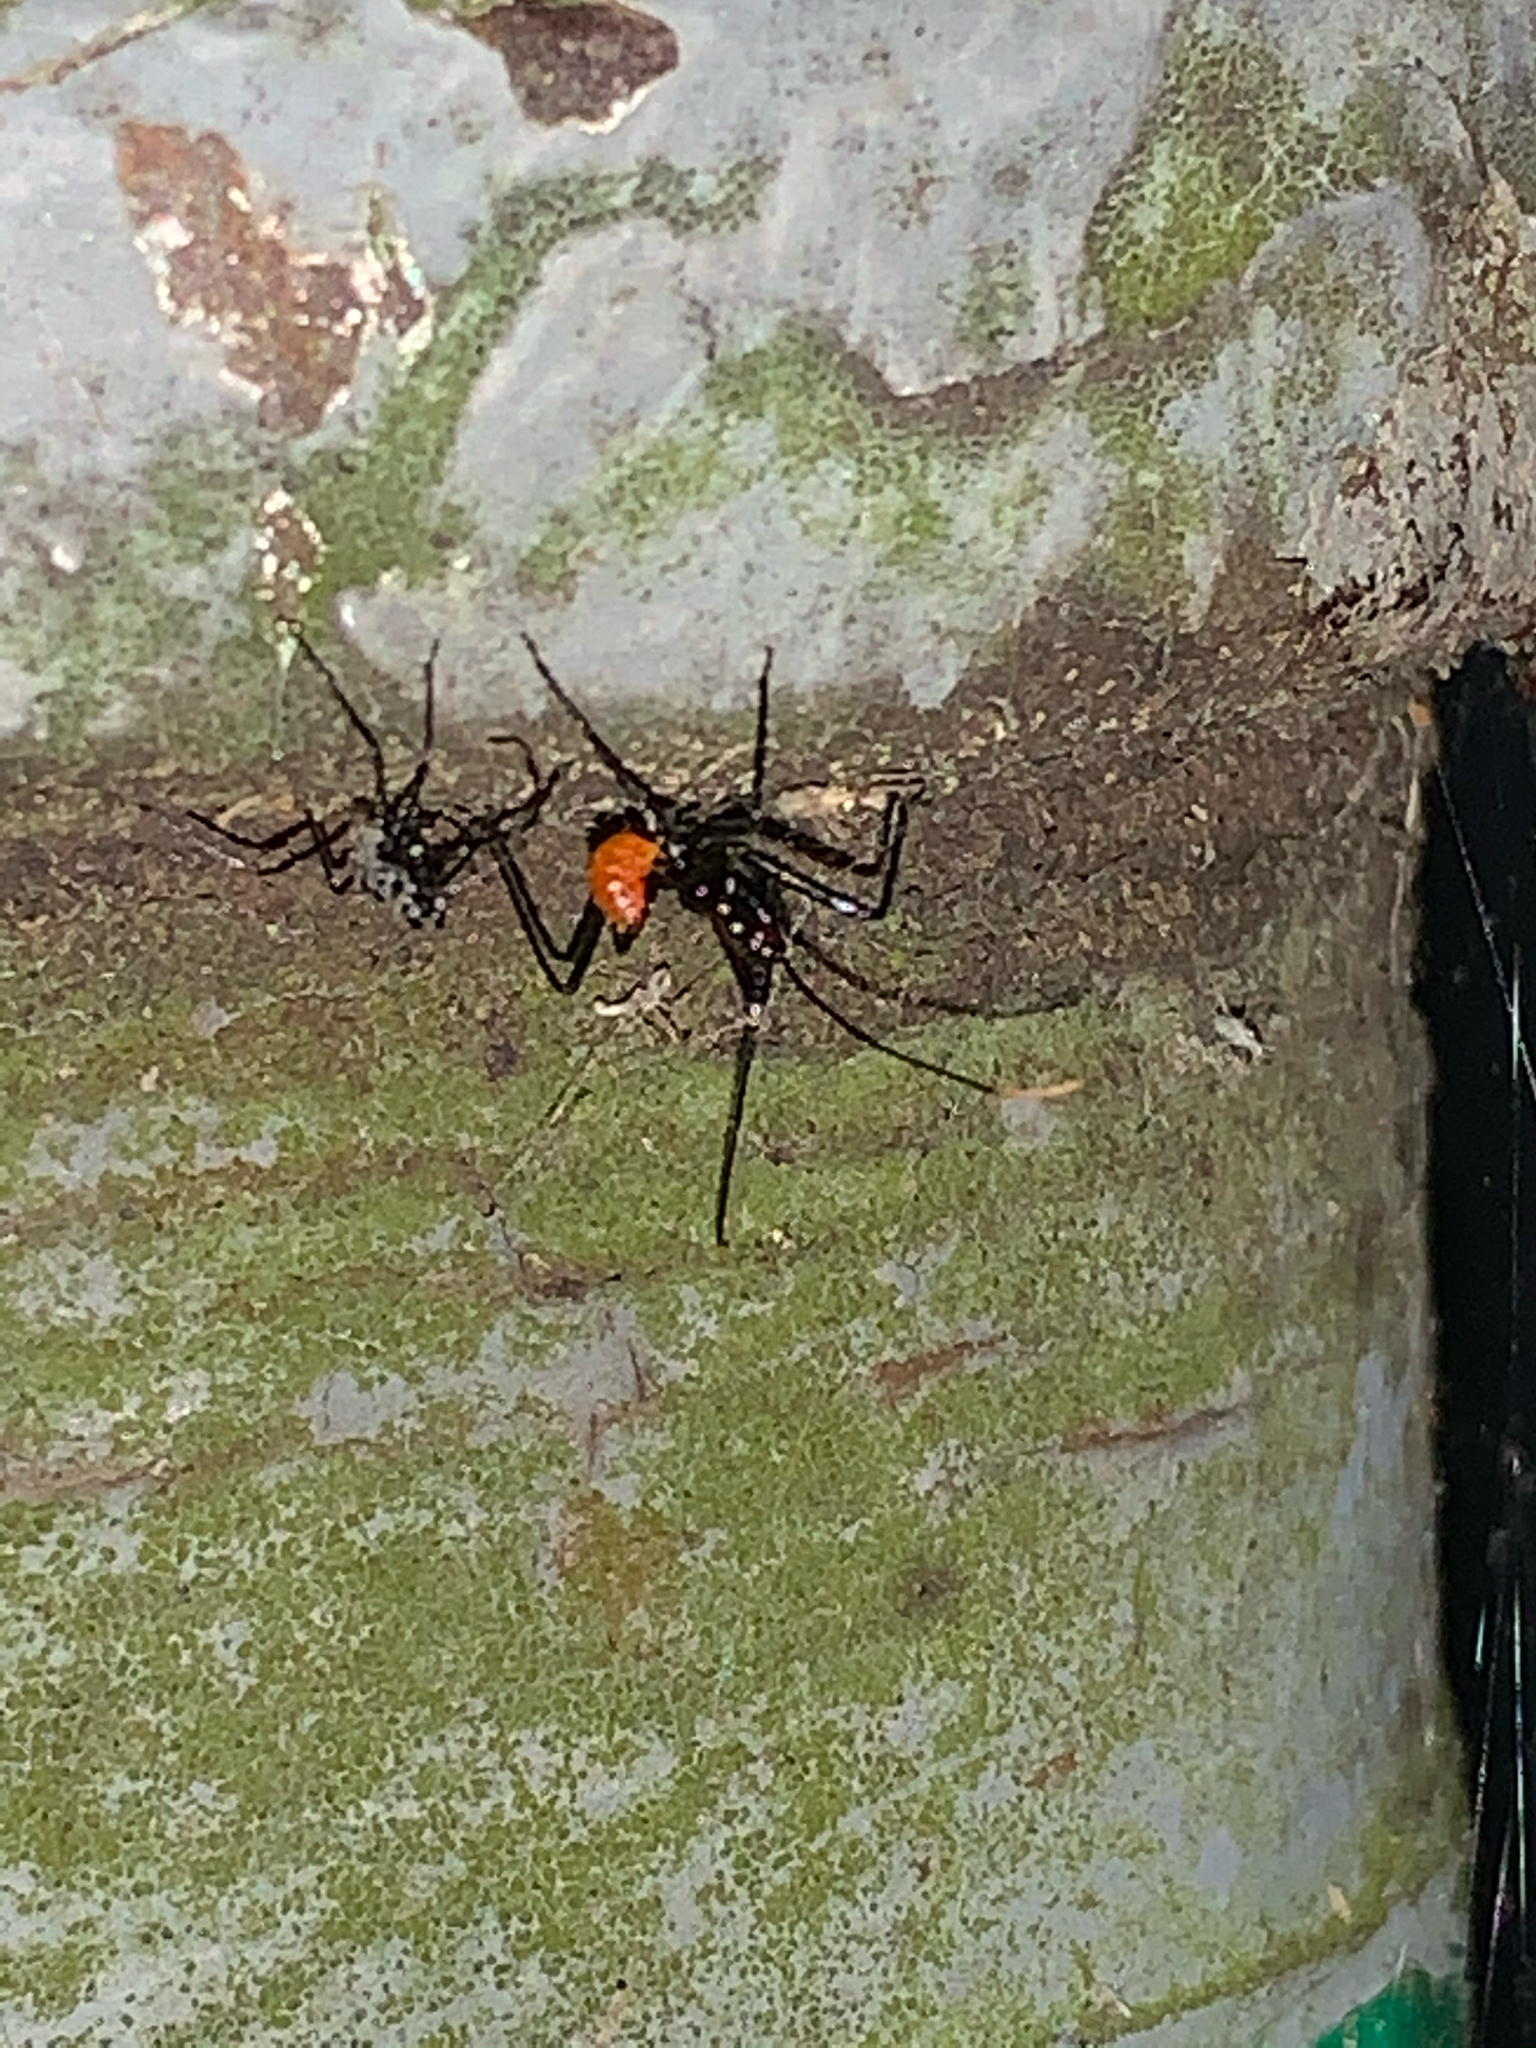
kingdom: Animalia
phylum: Arthropoda
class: Insecta
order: Hemiptera
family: Reduviidae
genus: Arilus
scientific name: Arilus cristatus
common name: North american wheel bug
